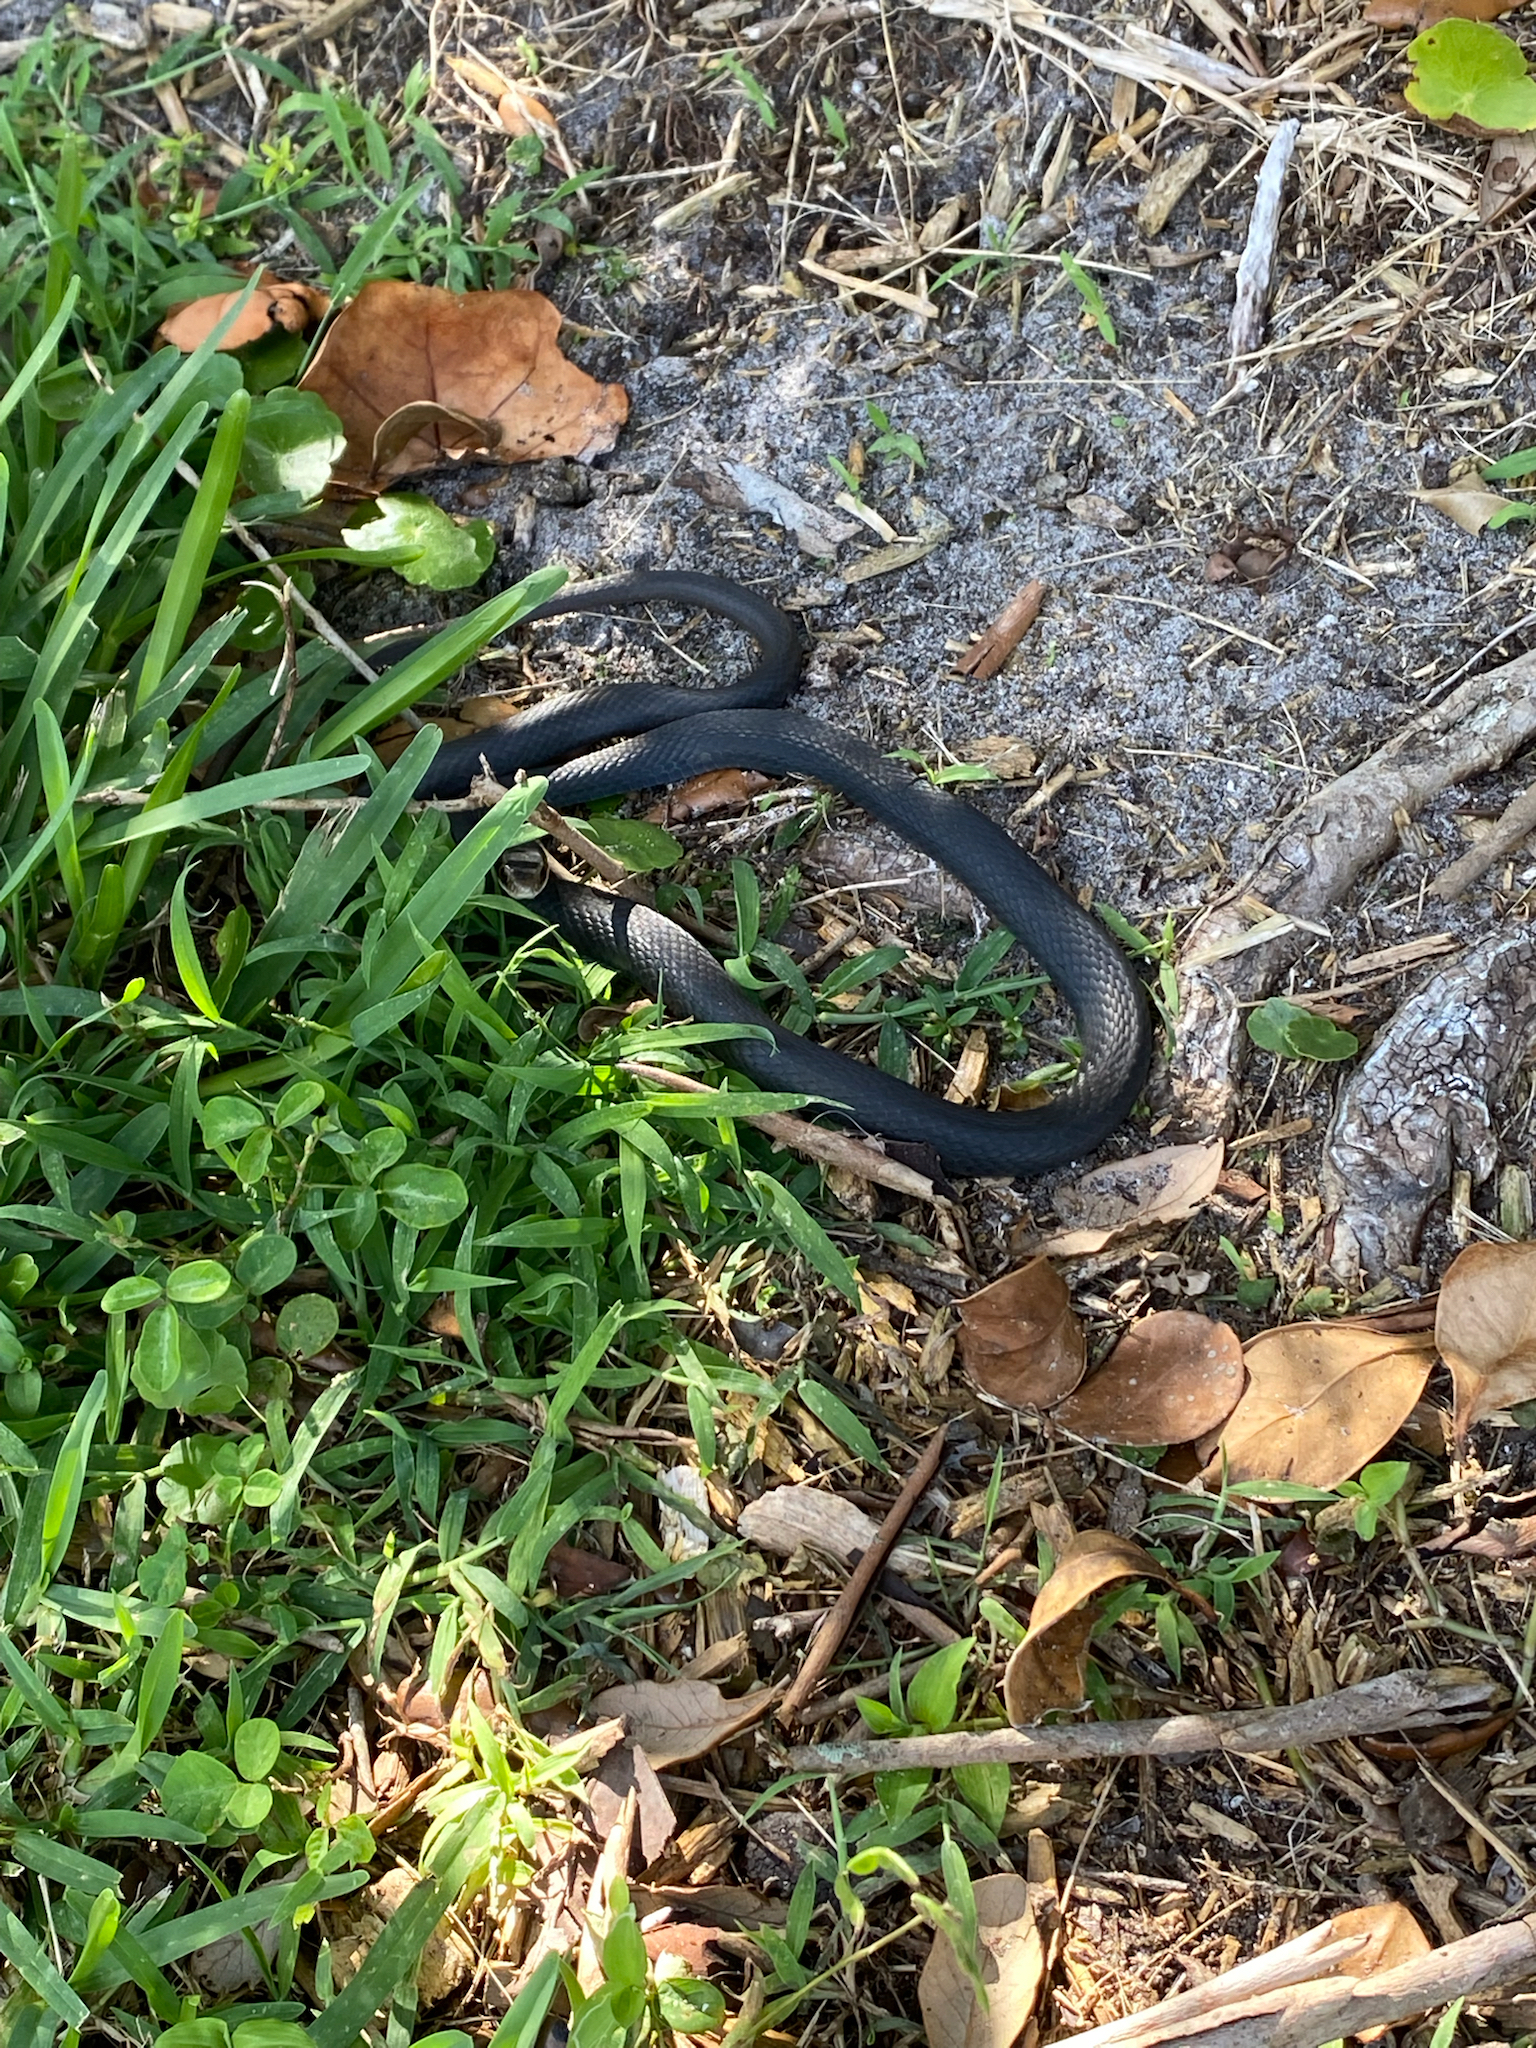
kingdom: Animalia
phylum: Chordata
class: Squamata
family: Colubridae
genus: Coluber
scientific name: Coluber constrictor
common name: Eastern racer
